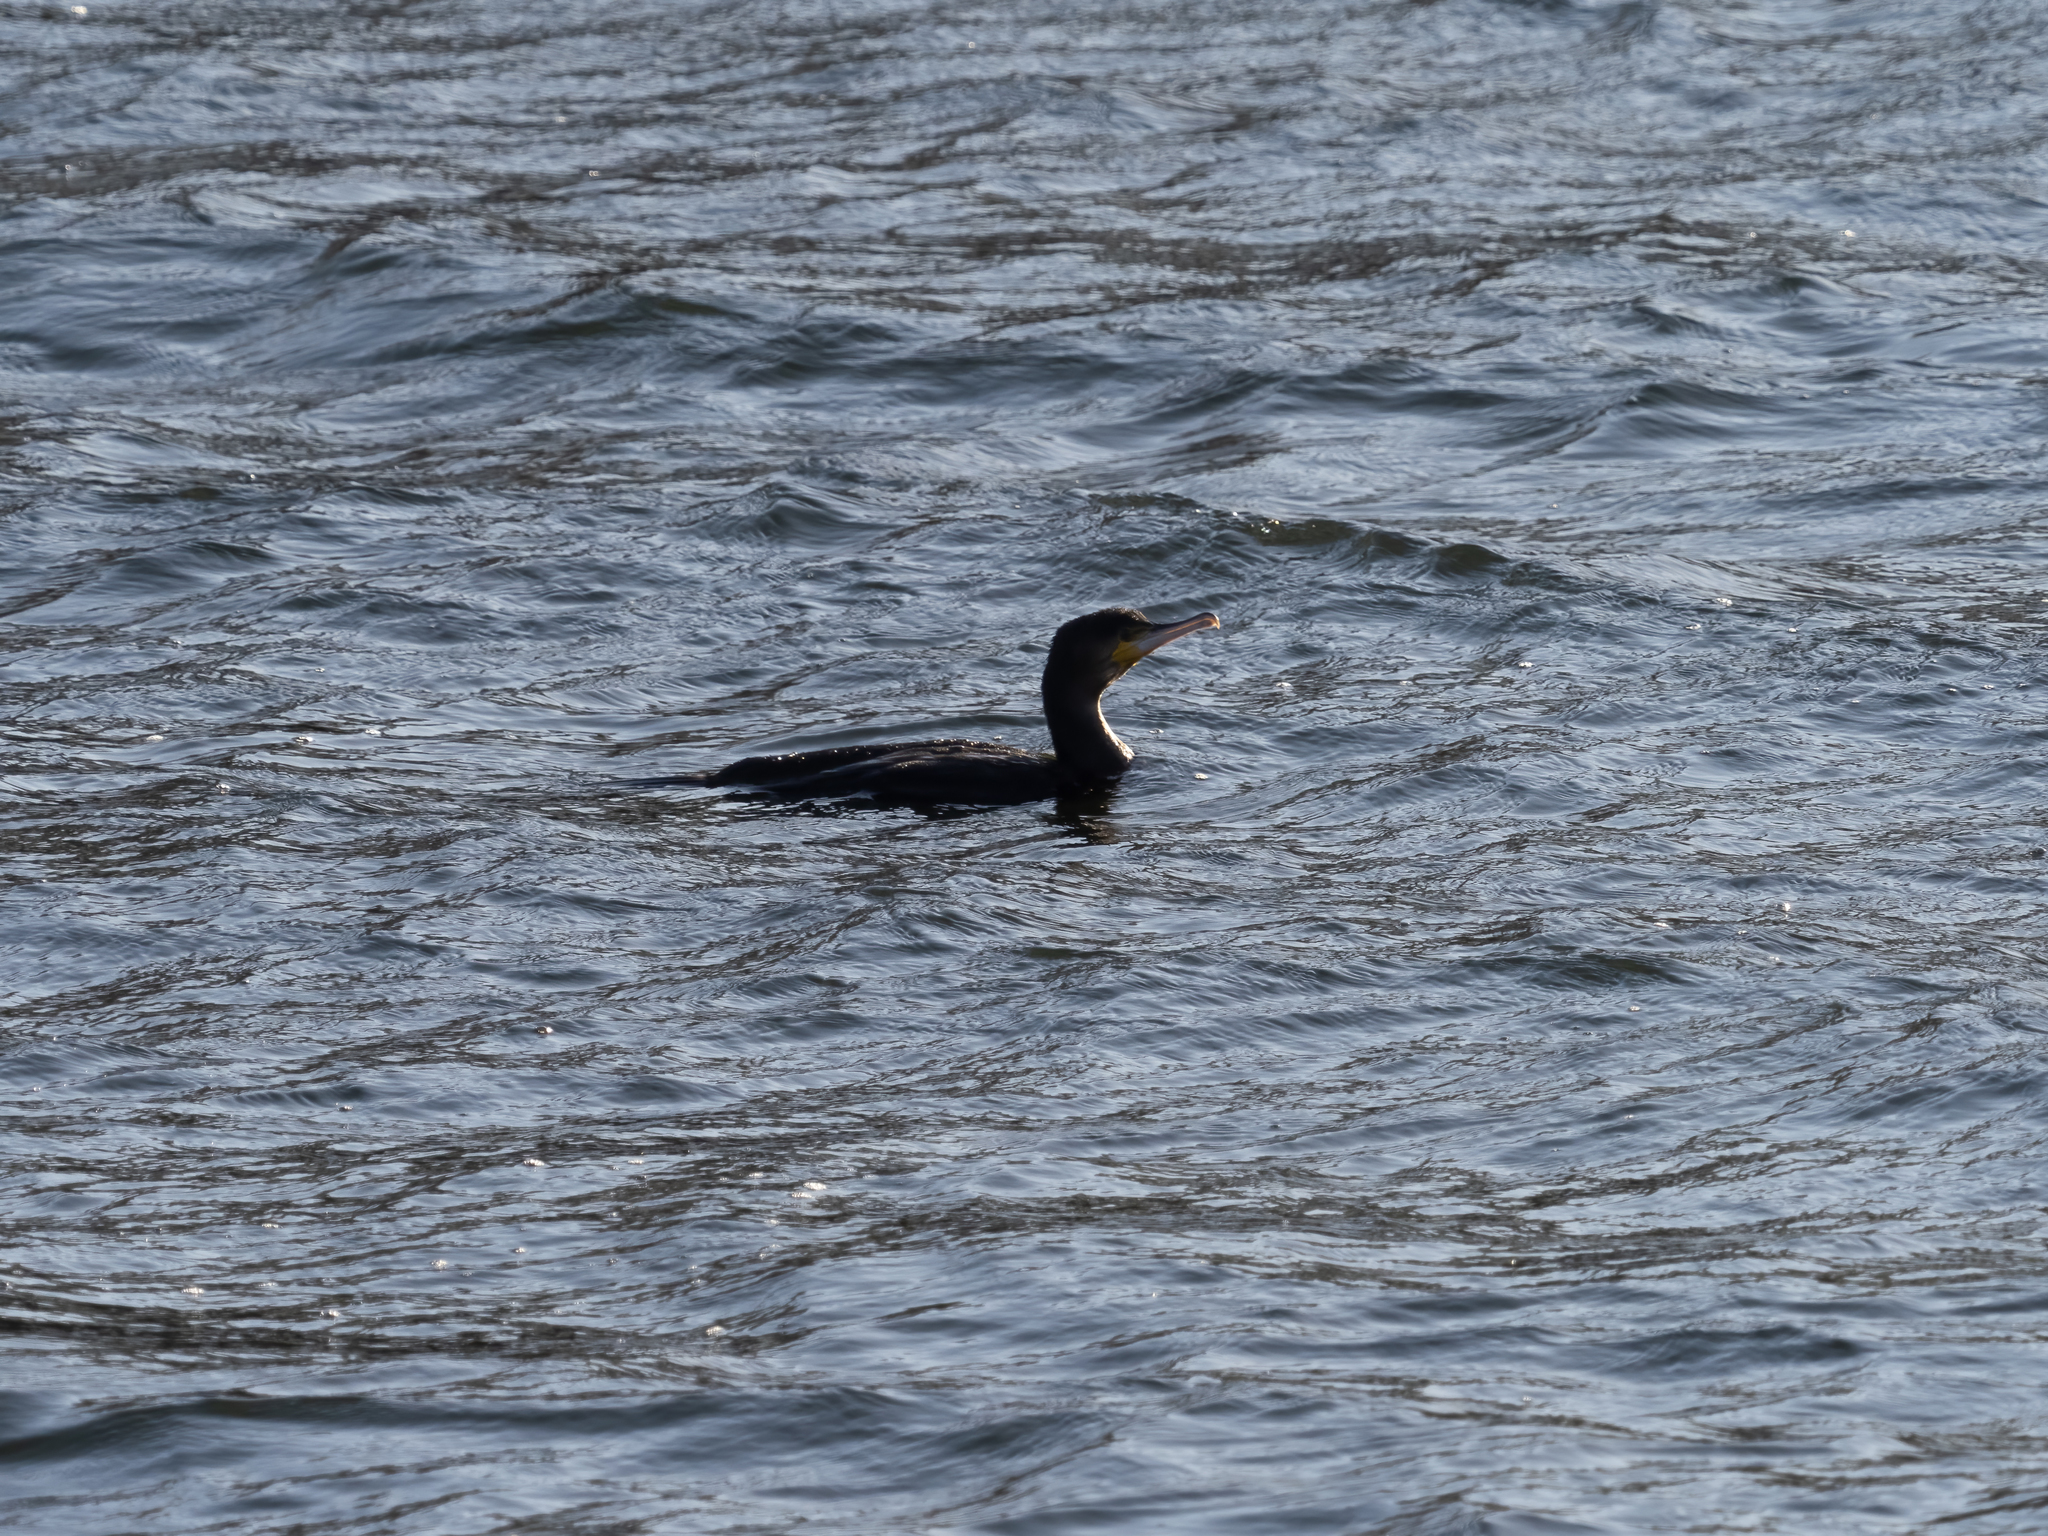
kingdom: Animalia
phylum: Chordata
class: Aves
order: Suliformes
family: Phalacrocoracidae
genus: Phalacrocorax
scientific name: Phalacrocorax carbo
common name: Great cormorant
